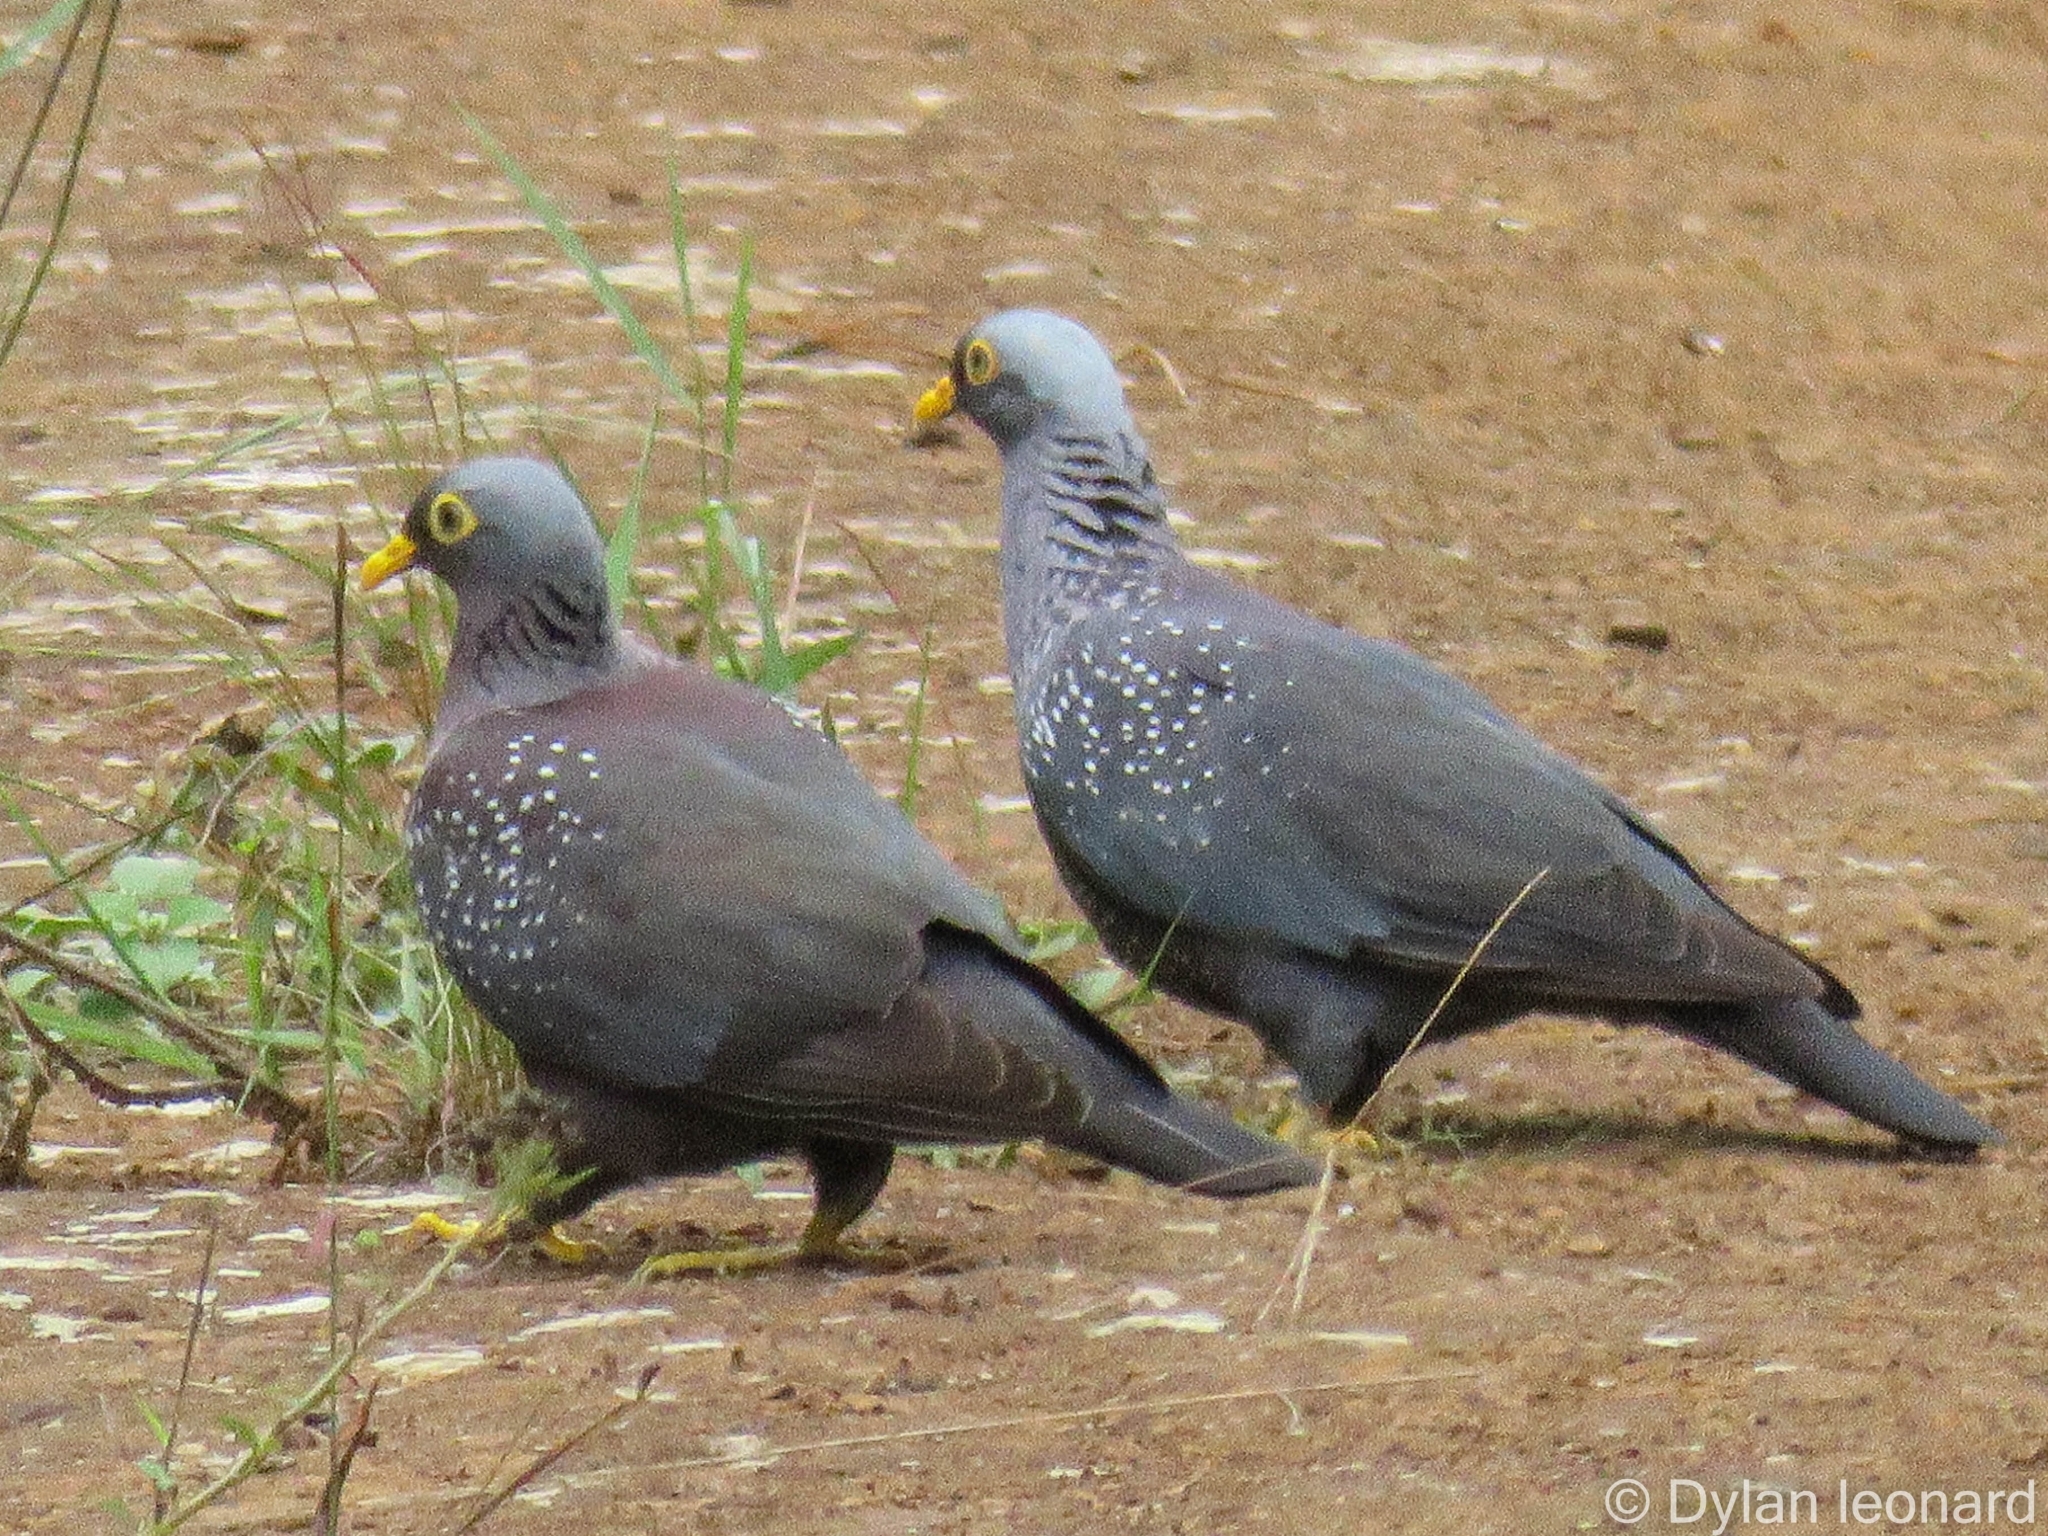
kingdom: Animalia
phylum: Chordata
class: Aves
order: Columbiformes
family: Columbidae
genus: Columba
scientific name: Columba arquatrix
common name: African olive pigeon
